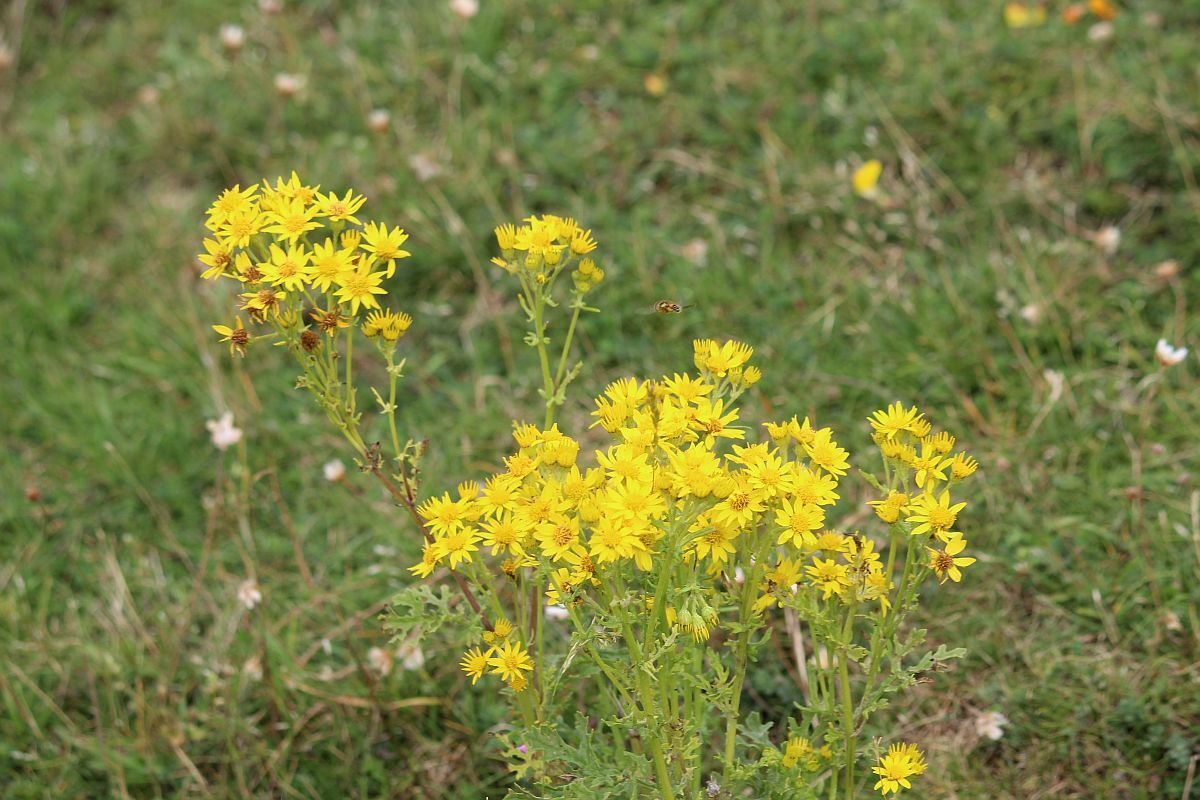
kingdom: Plantae
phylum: Tracheophyta
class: Magnoliopsida
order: Asterales
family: Asteraceae
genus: Jacobaea
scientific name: Jacobaea vulgaris
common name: Stinking willie
